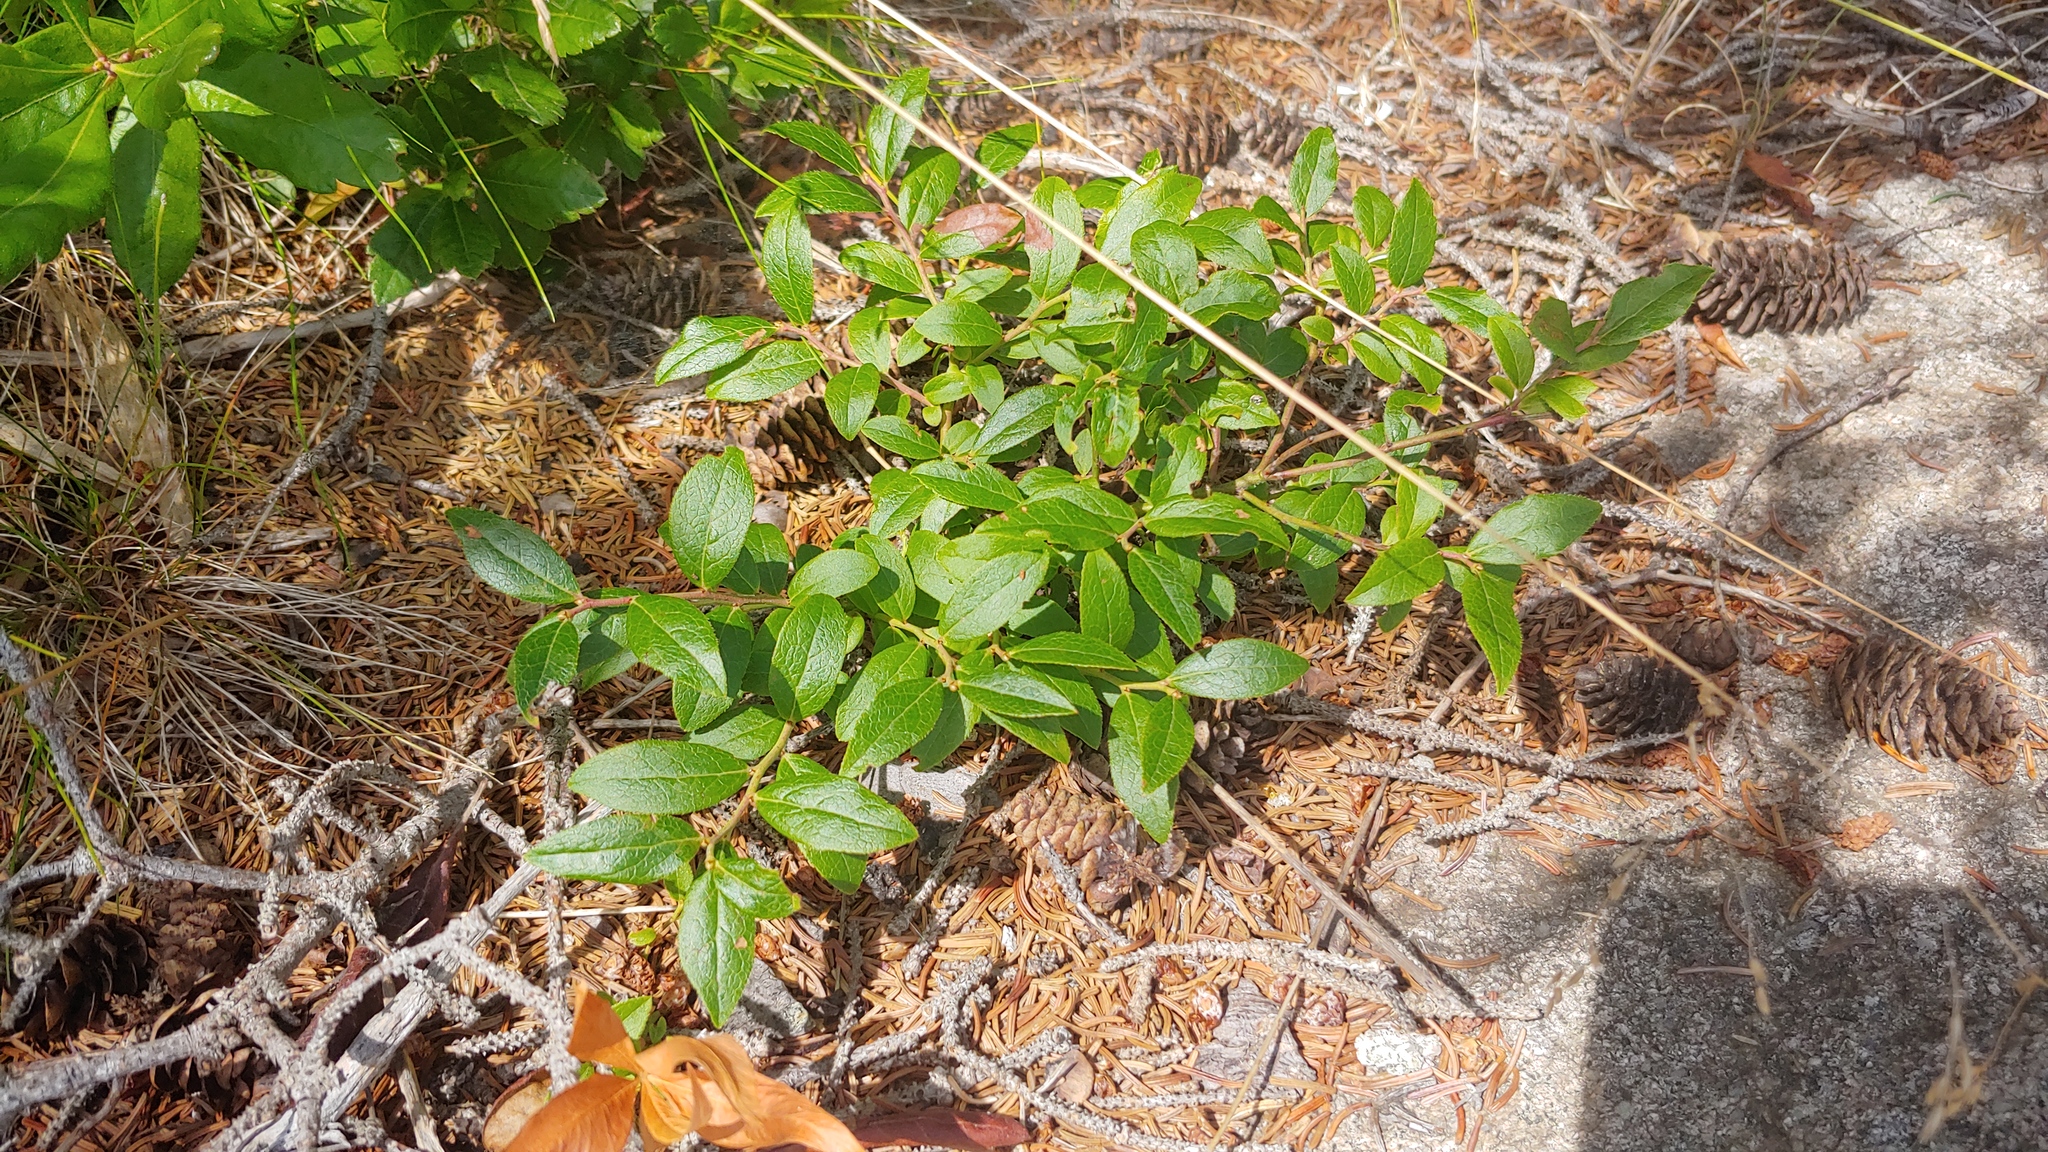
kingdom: Plantae
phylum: Tracheophyta
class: Magnoliopsida
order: Ericales
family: Ericaceae
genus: Vaccinium
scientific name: Vaccinium angustifolium
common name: Early lowbush blueberry
